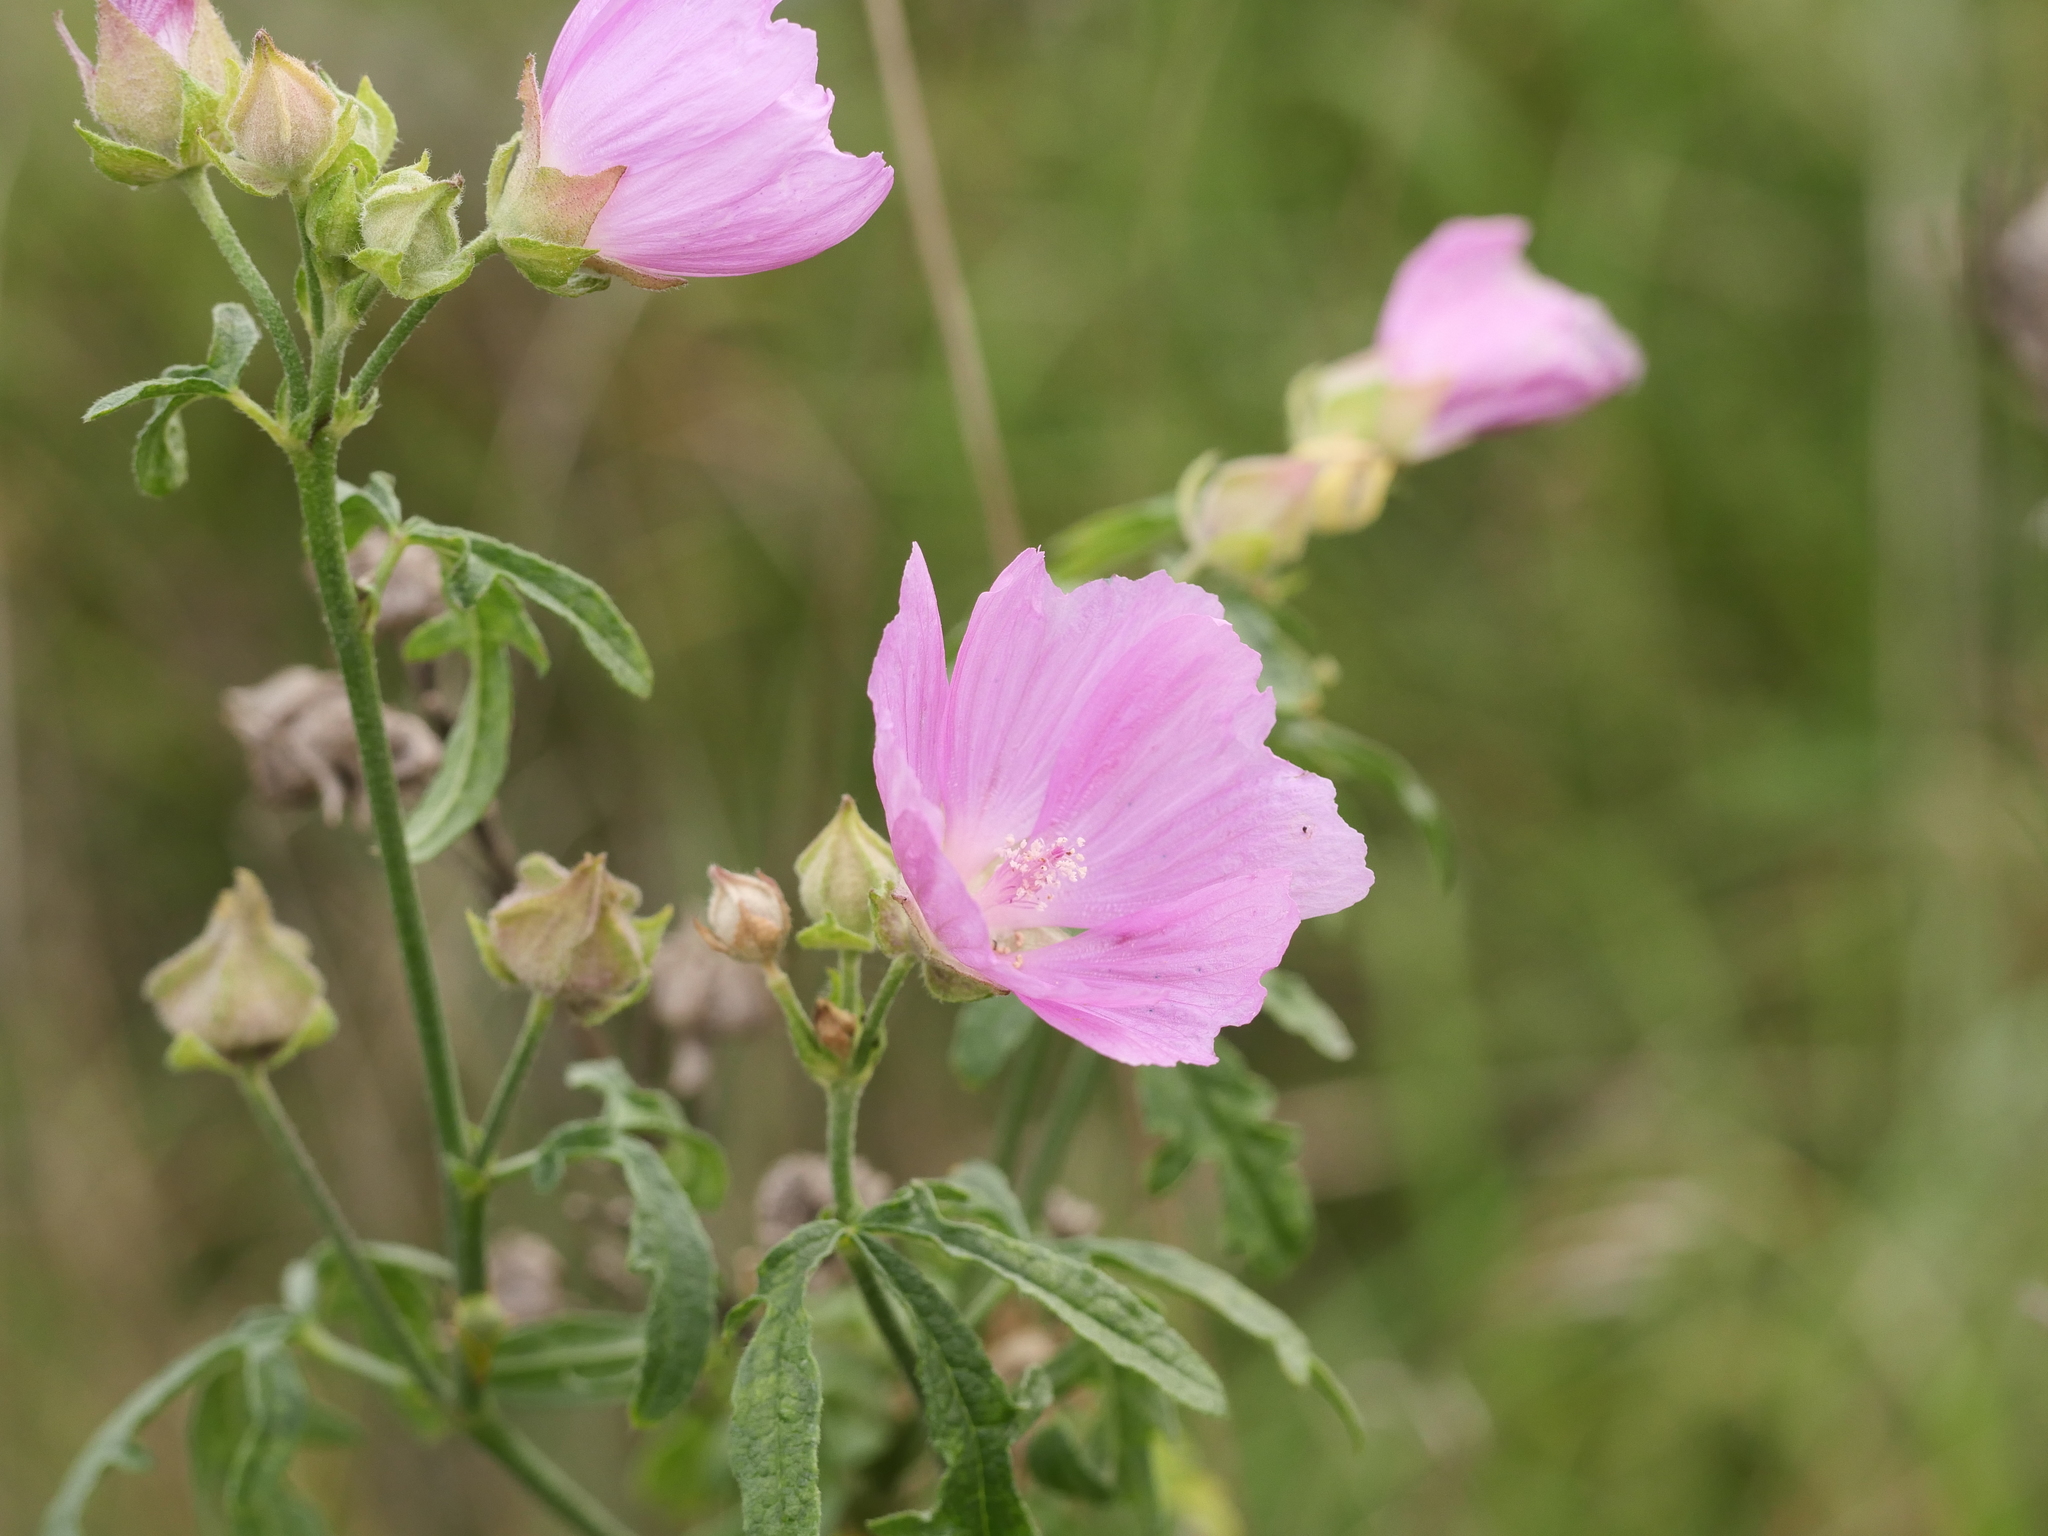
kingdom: Plantae
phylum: Tracheophyta
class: Magnoliopsida
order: Malvales
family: Malvaceae
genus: Malva
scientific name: Malva alcea
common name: Greater musk-mallow
